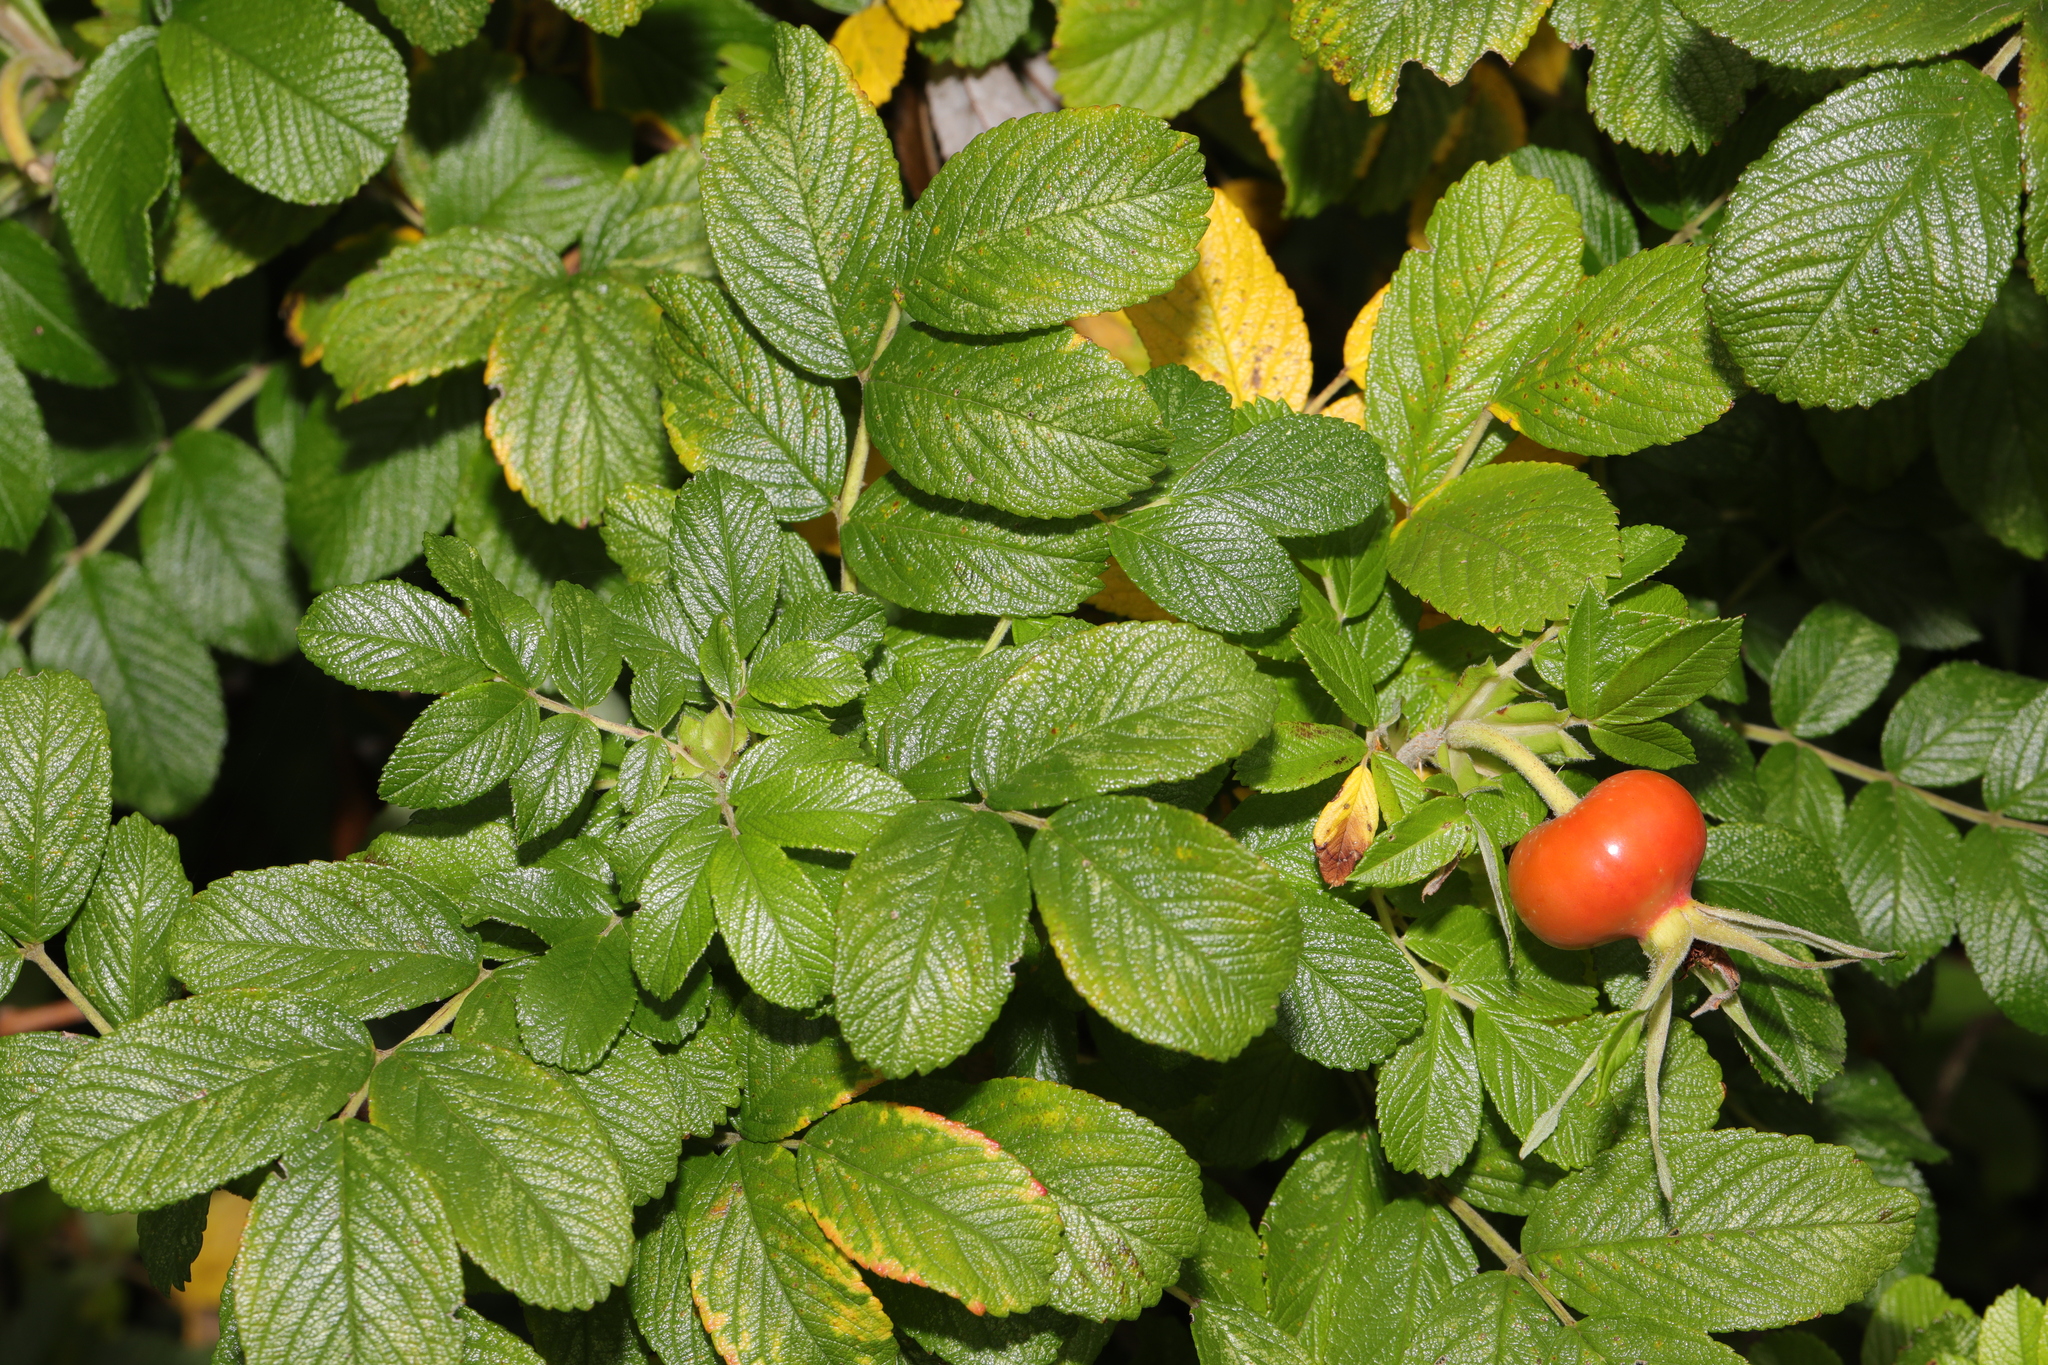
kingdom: Plantae
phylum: Tracheophyta
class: Magnoliopsida
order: Rosales
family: Rosaceae
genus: Rosa
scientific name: Rosa rugosa
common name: Japanese rose
